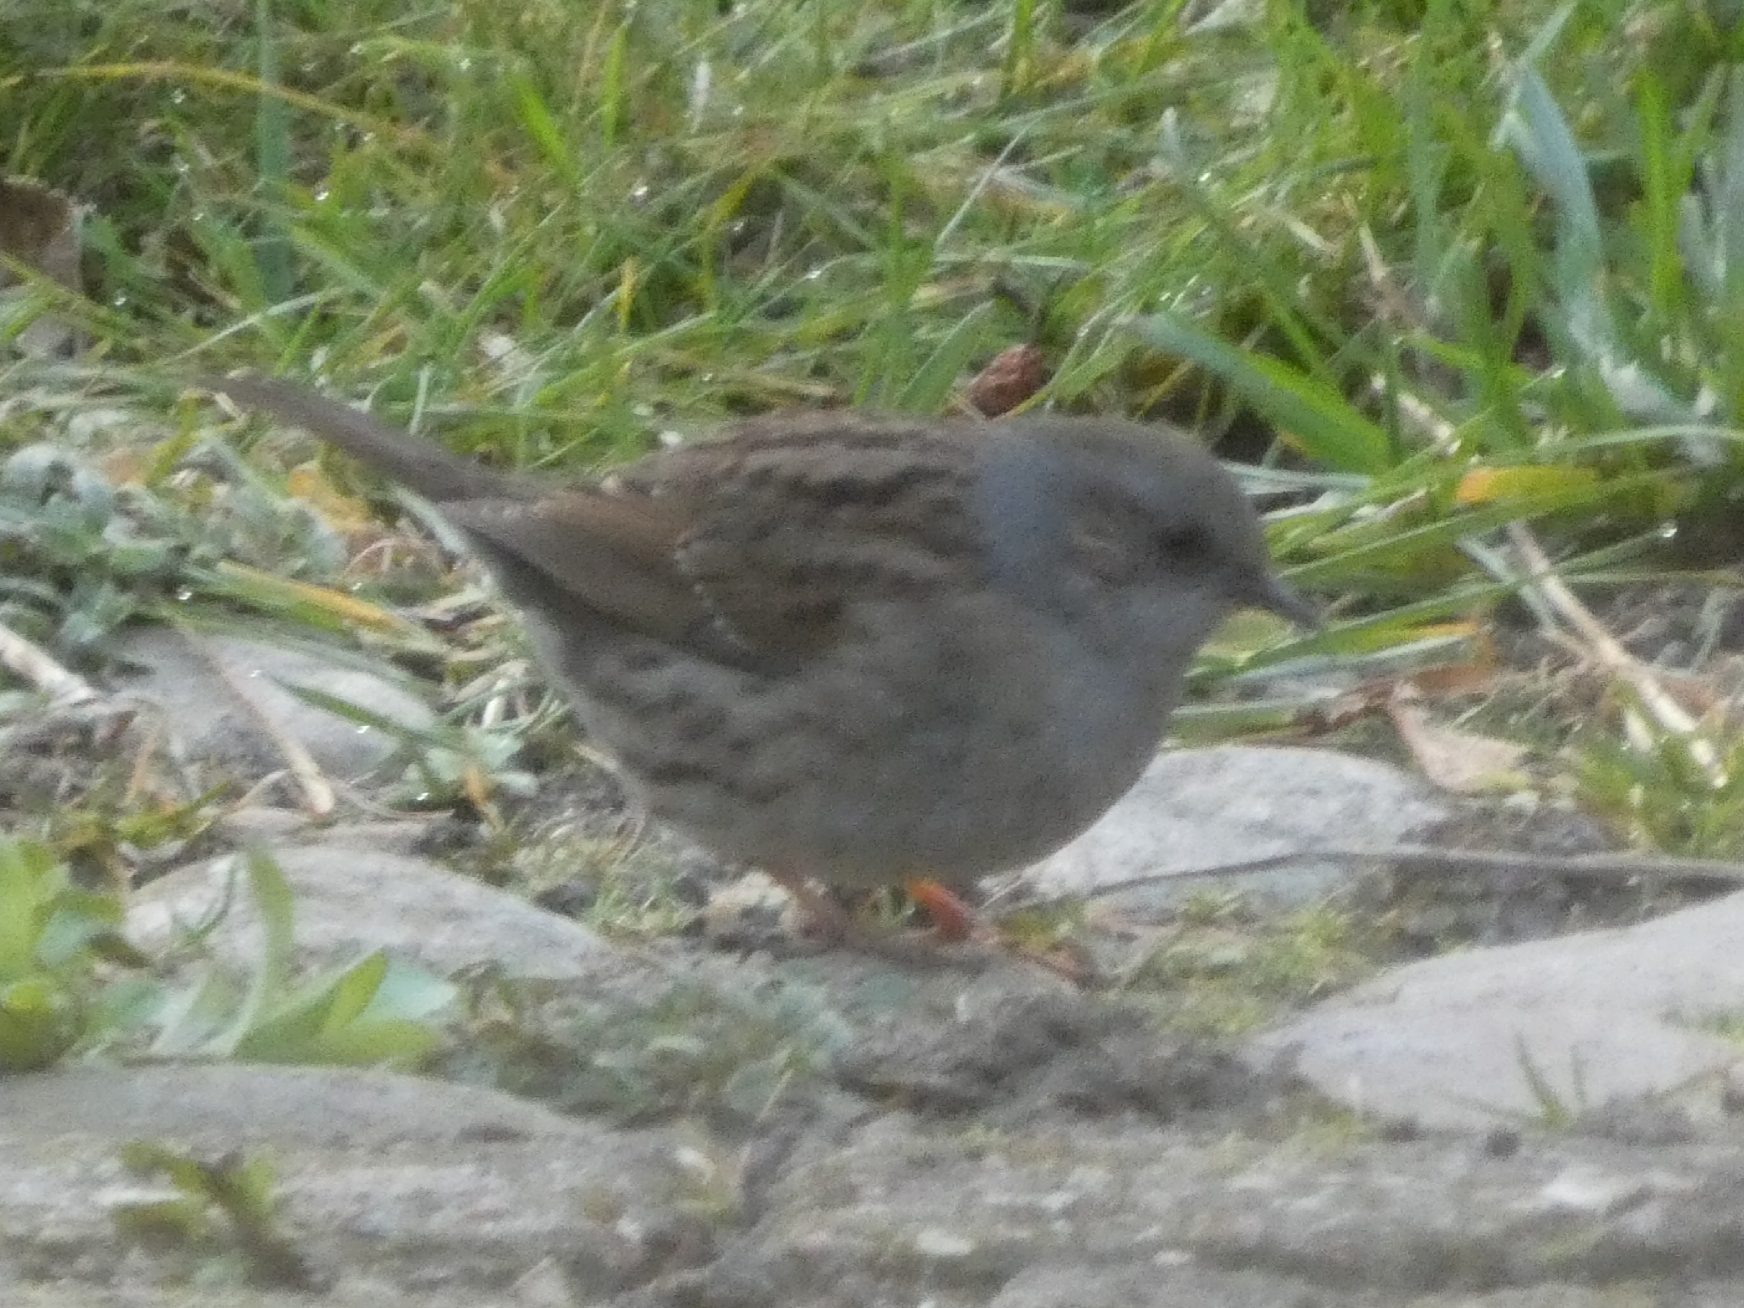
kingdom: Animalia
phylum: Chordata
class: Aves
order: Passeriformes
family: Prunellidae
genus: Prunella
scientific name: Prunella modularis
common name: Dunnock
